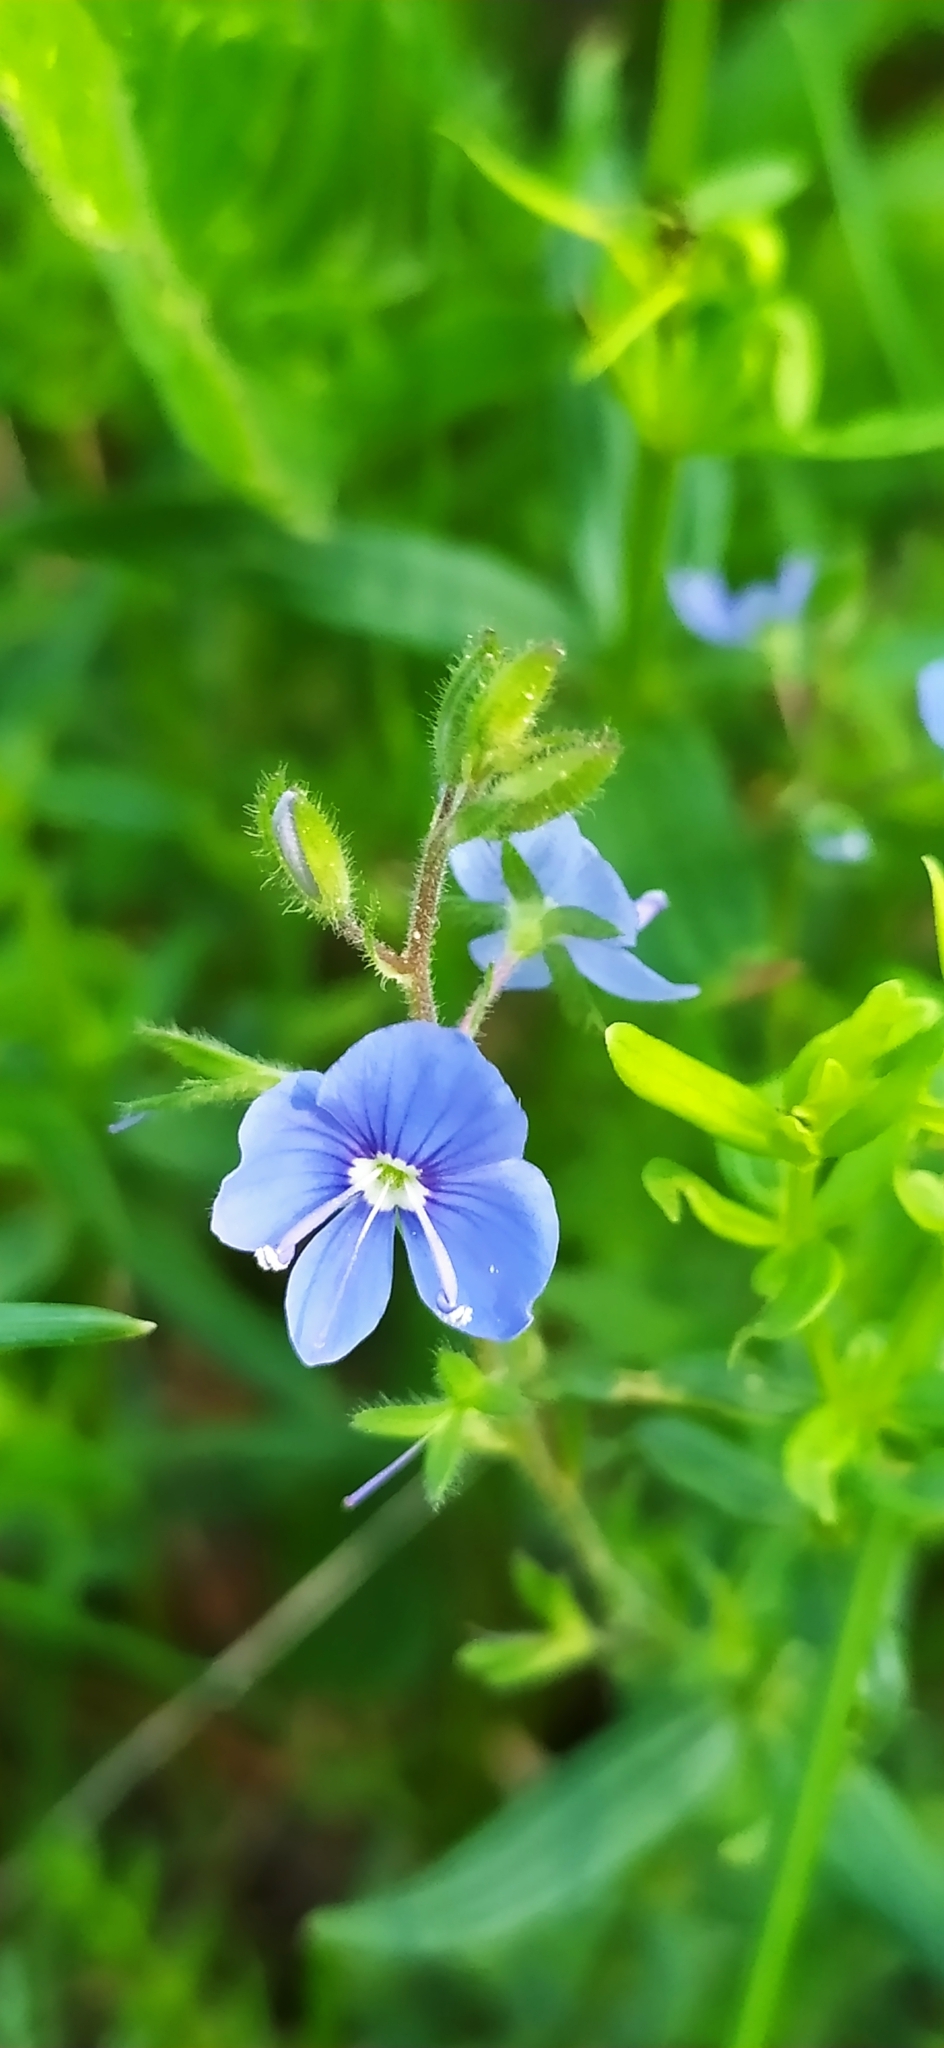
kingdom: Plantae
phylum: Tracheophyta
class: Magnoliopsida
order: Lamiales
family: Plantaginaceae
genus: Veronica
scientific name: Veronica chamaedrys
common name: Germander speedwell
